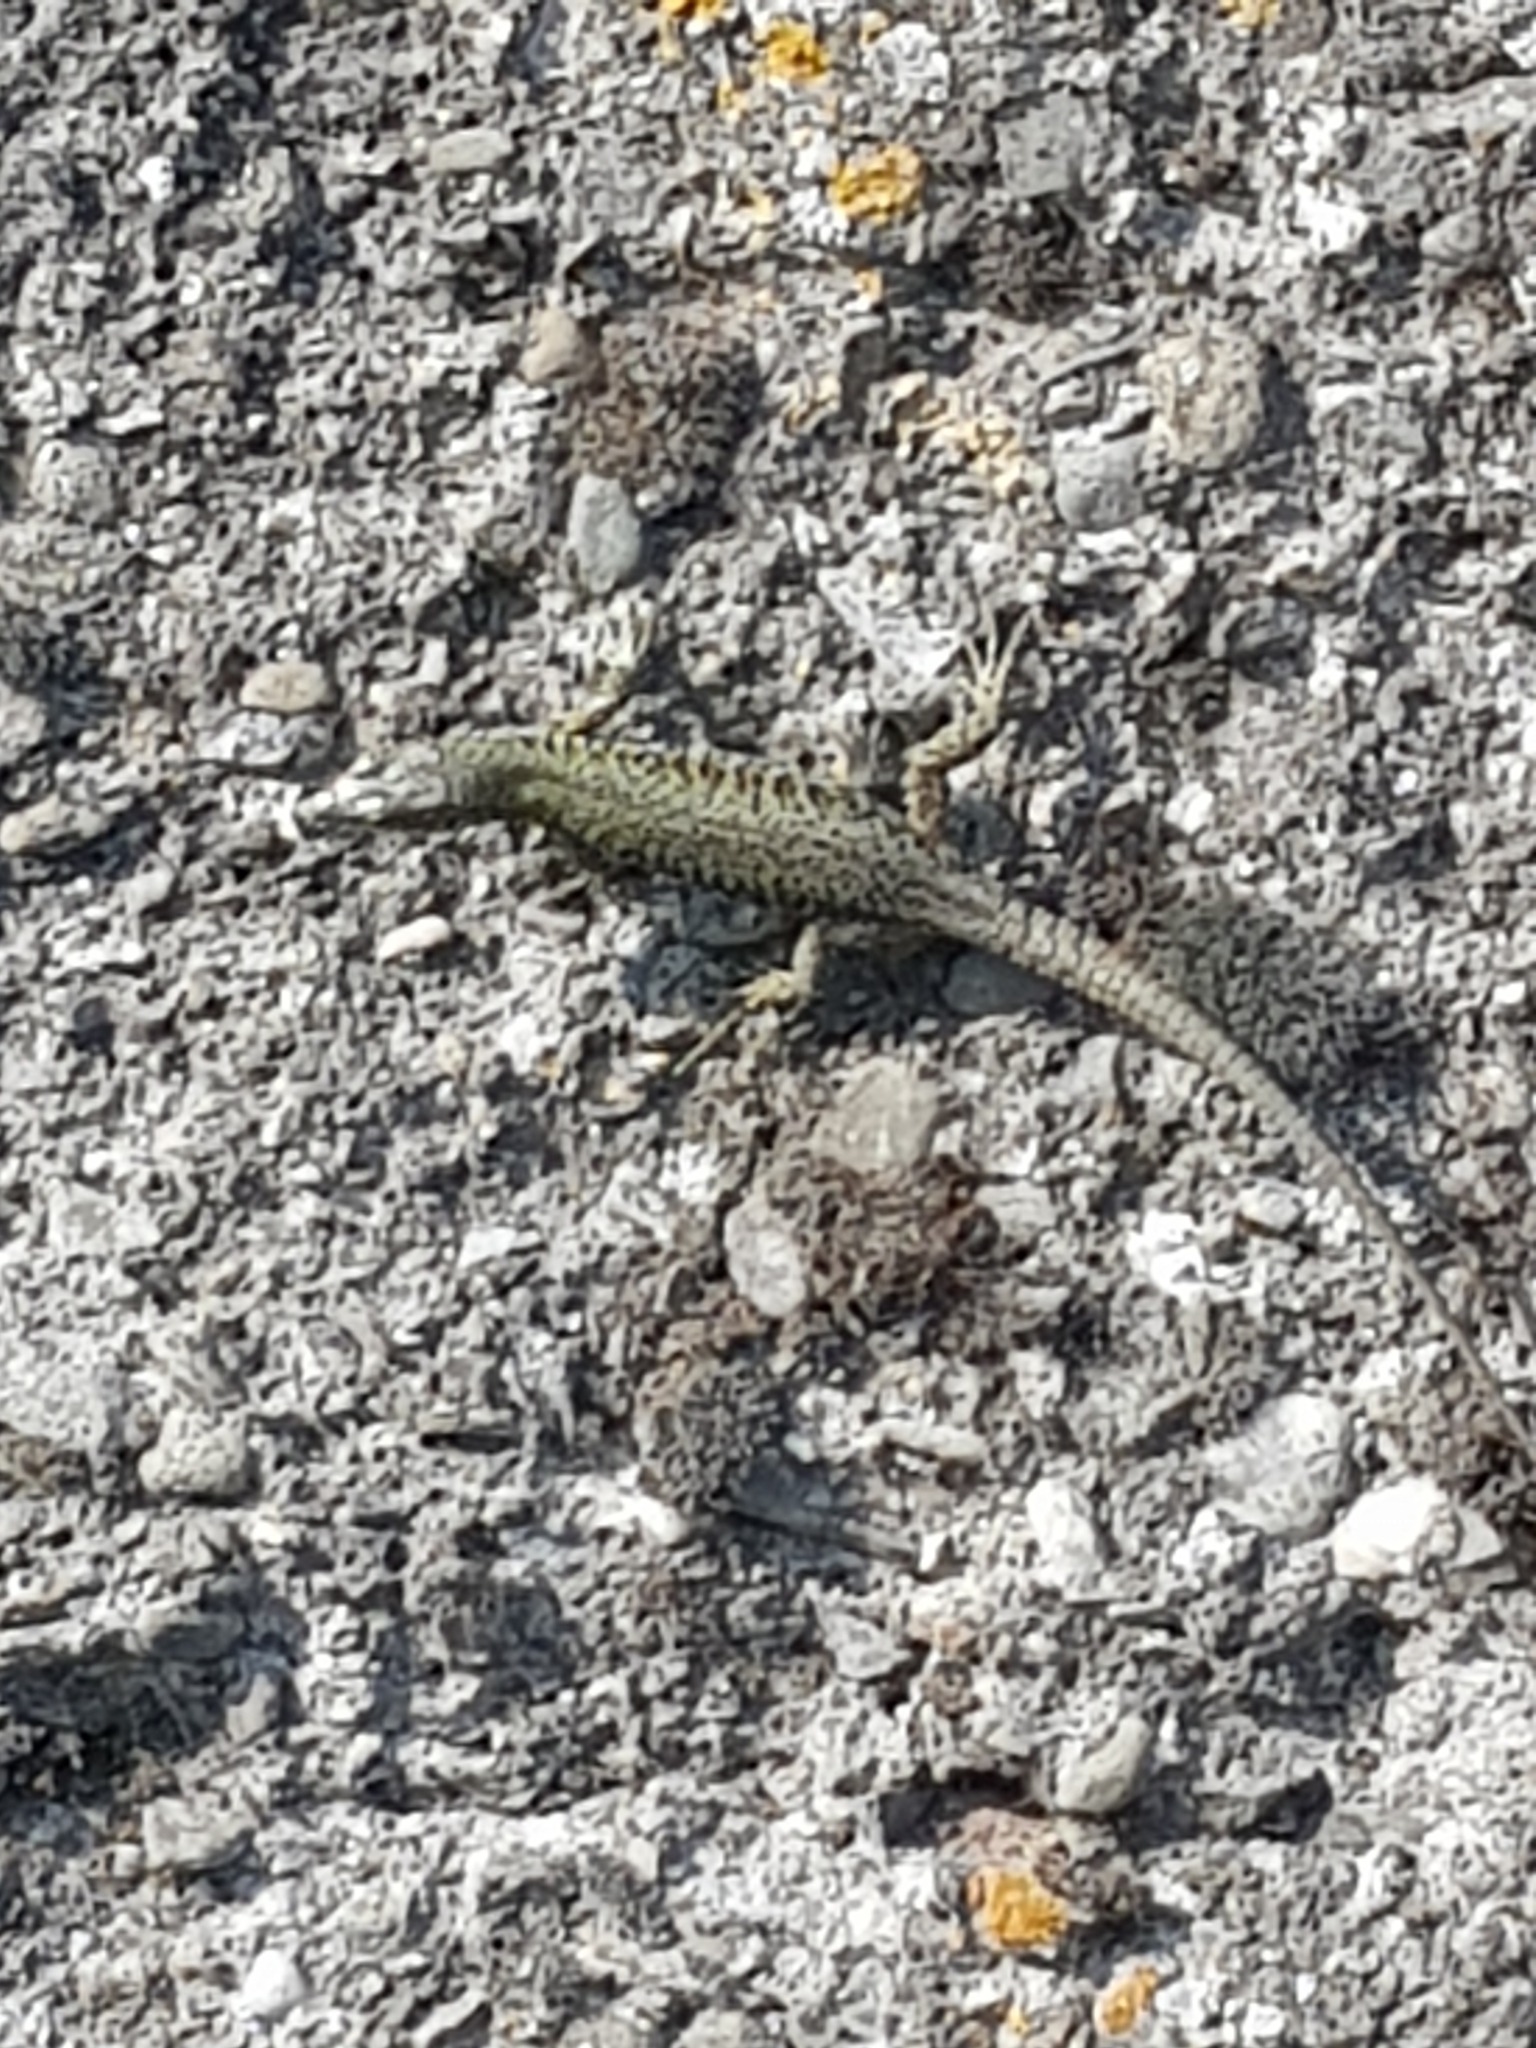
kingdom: Animalia
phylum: Chordata
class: Squamata
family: Lacertidae
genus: Podarcis
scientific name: Podarcis muralis
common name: Common wall lizard
